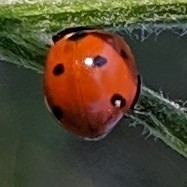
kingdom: Animalia
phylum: Arthropoda
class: Insecta
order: Coleoptera
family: Coccinellidae
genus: Coccinella
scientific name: Coccinella septempunctata
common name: Sevenspotted lady beetle
